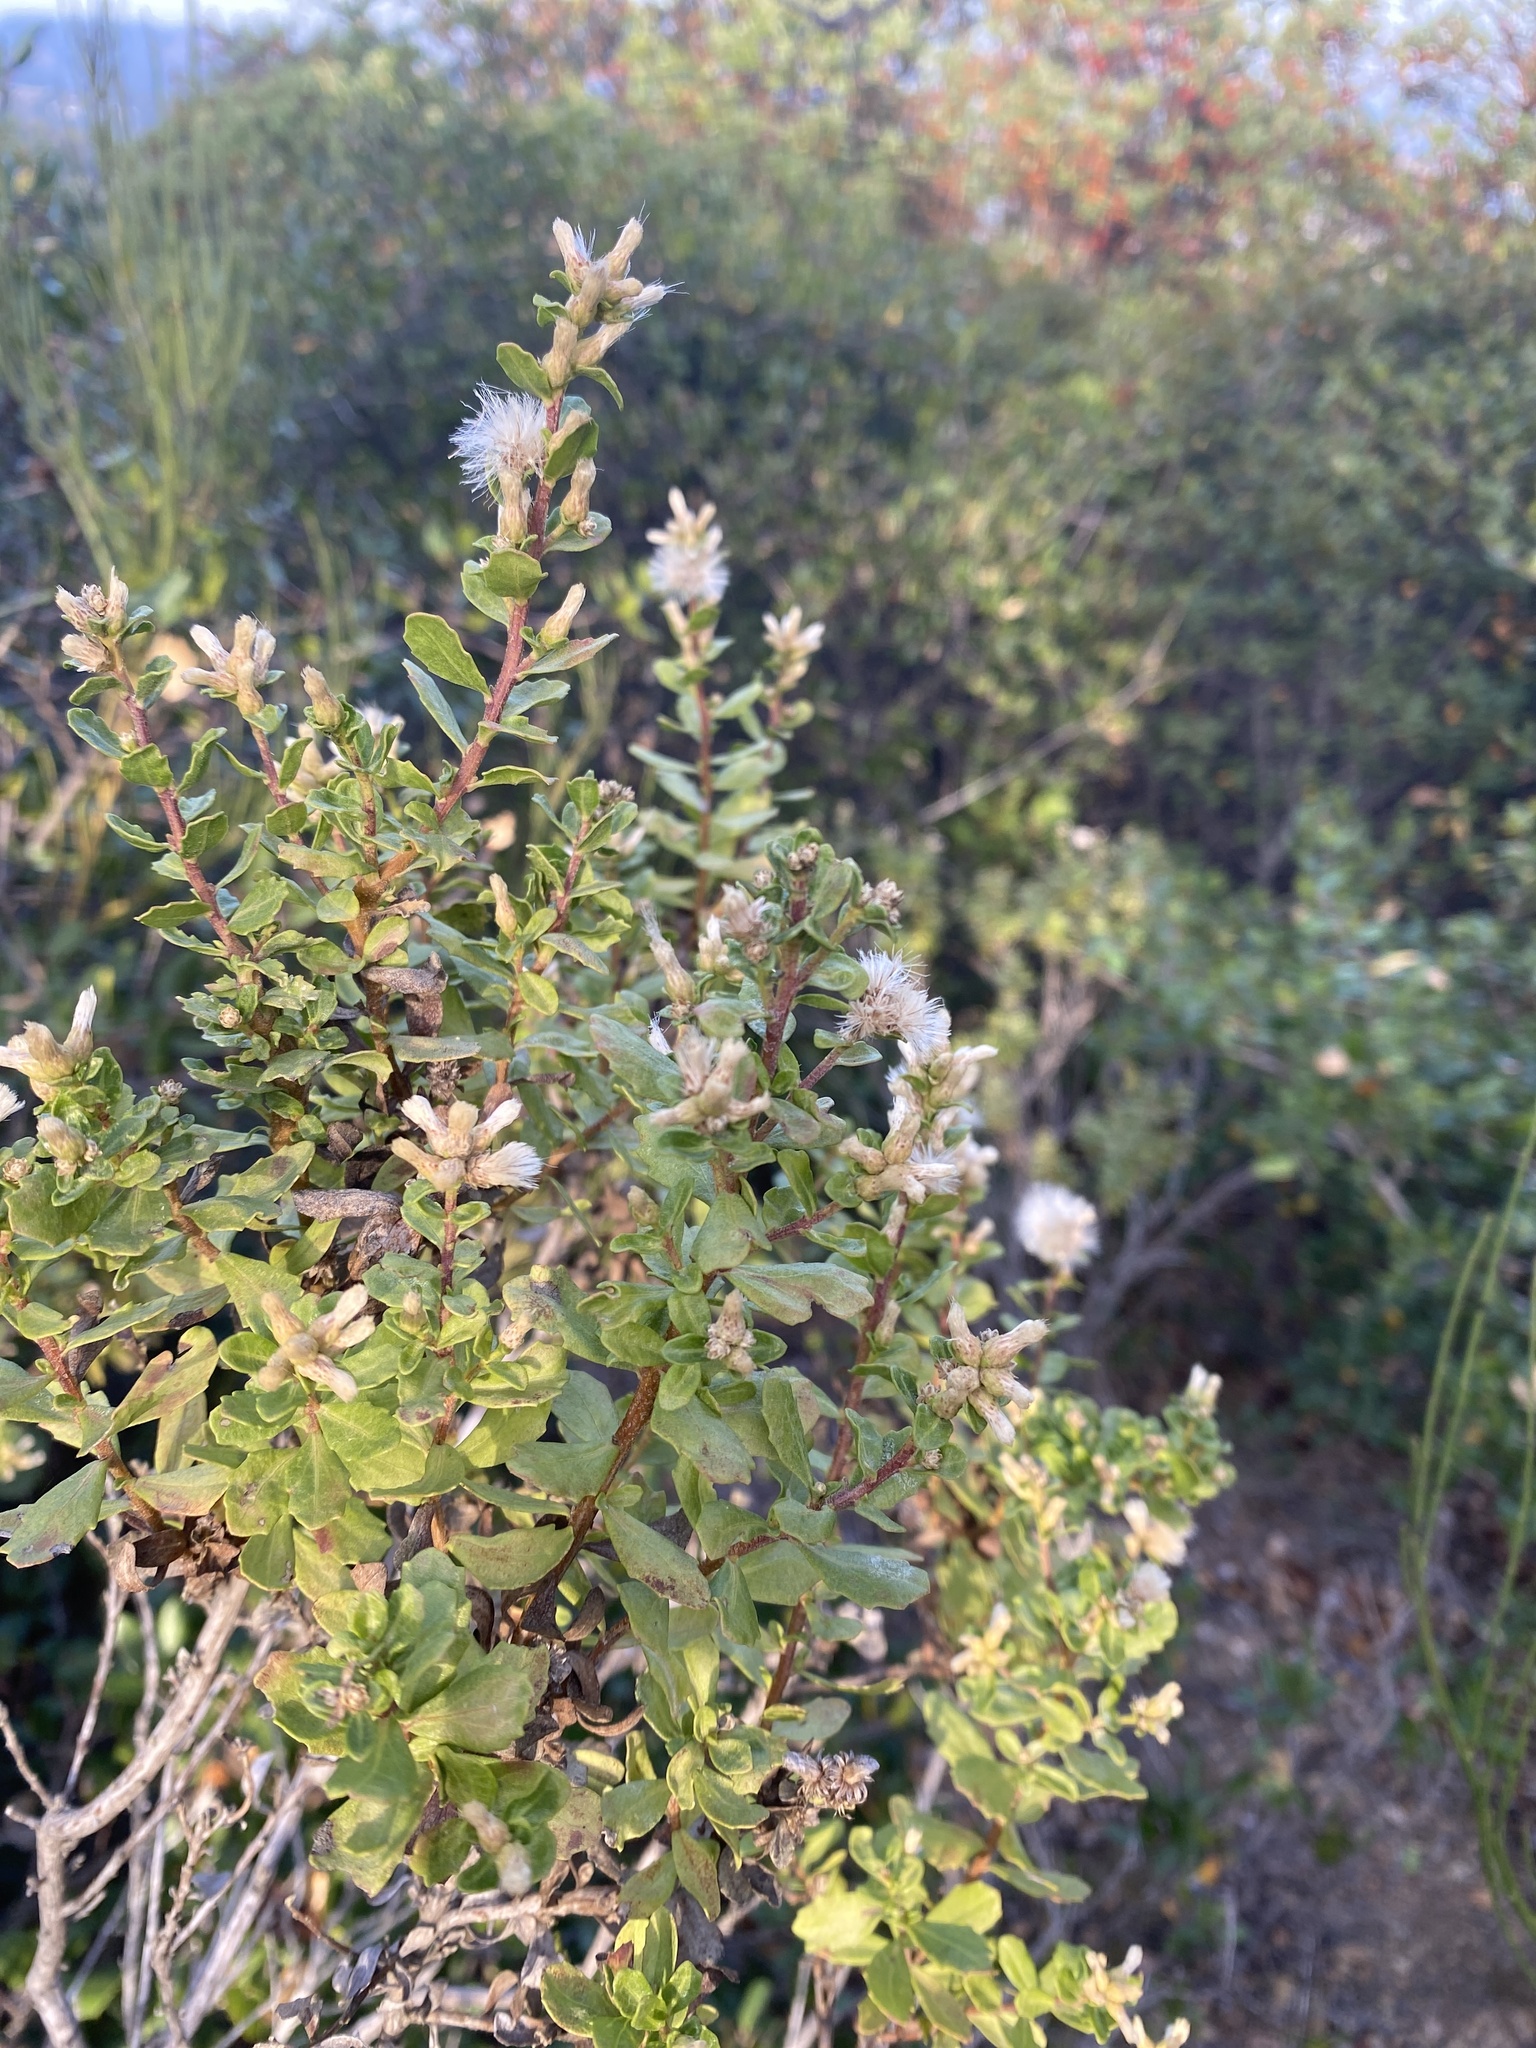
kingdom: Plantae
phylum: Tracheophyta
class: Magnoliopsida
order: Asterales
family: Asteraceae
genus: Baccharis
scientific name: Baccharis pilularis
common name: Coyotebrush
